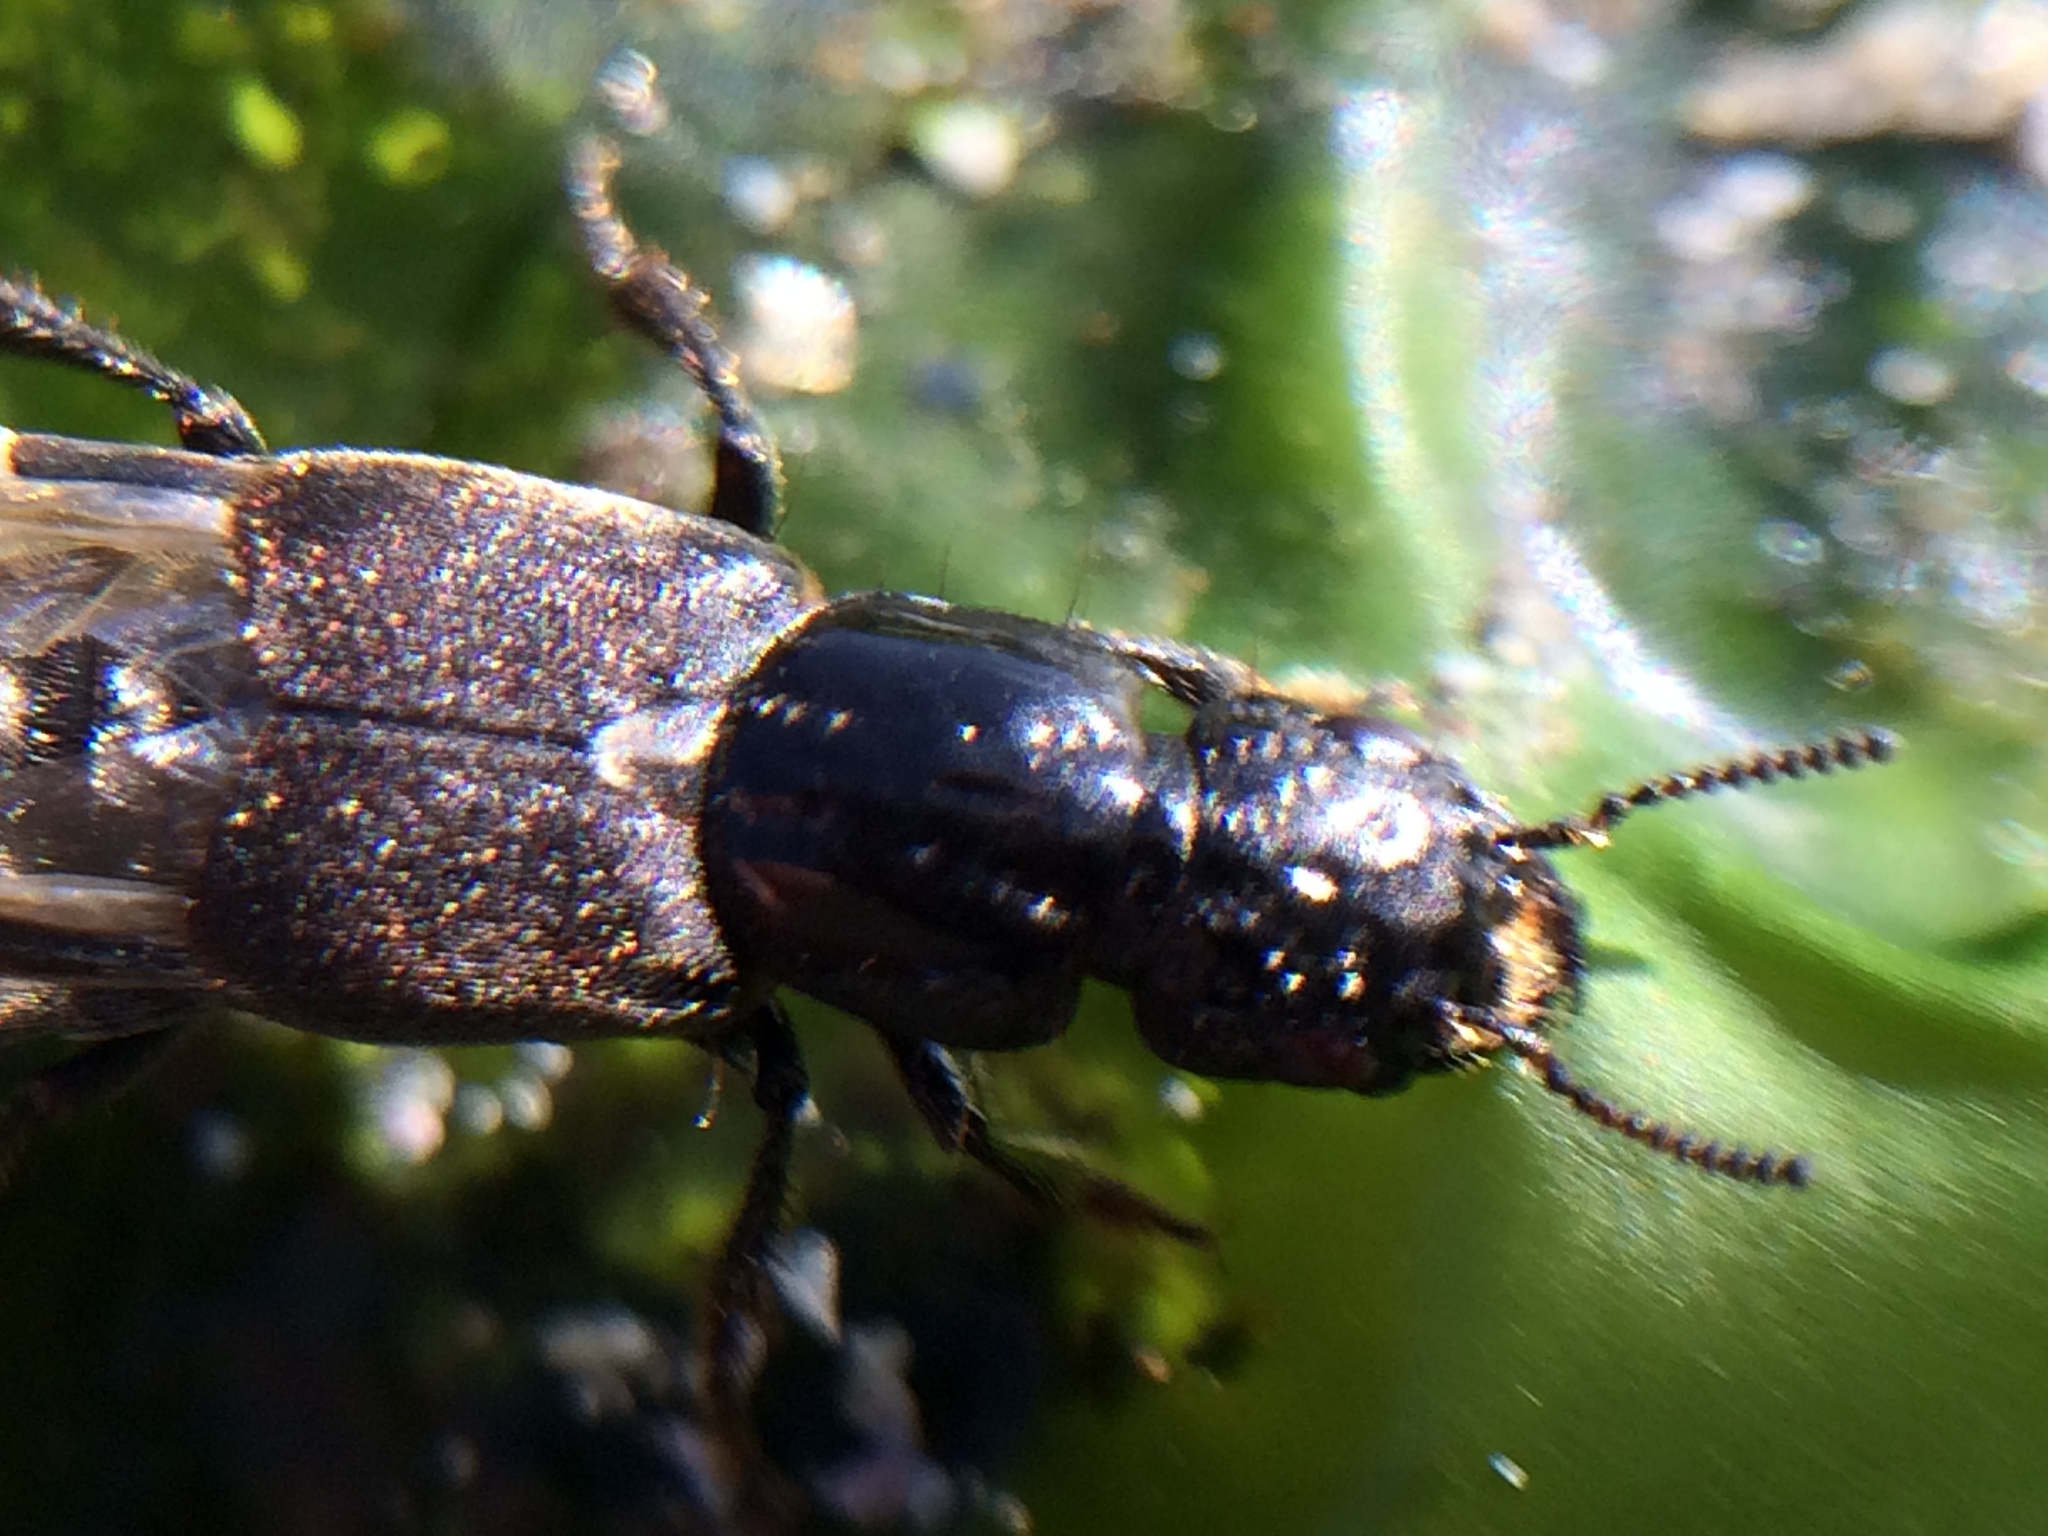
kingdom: Animalia
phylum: Arthropoda
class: Insecta
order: Coleoptera
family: Staphylinidae
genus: Cafius
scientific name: Cafius seminitens
